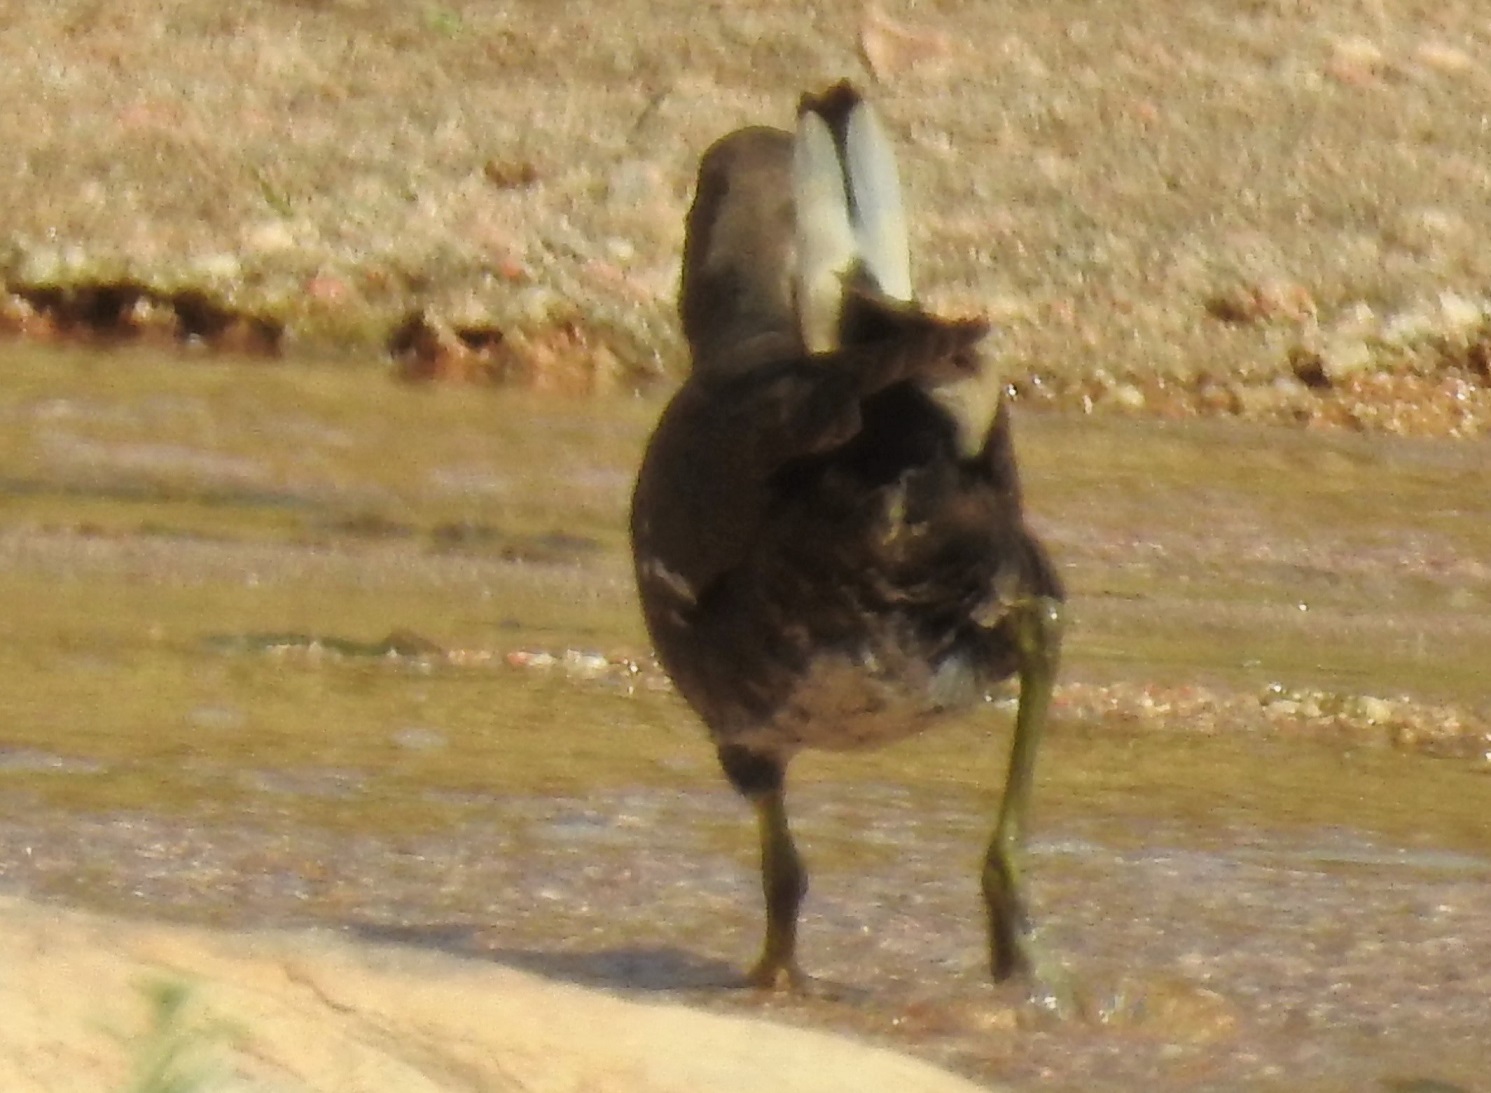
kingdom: Animalia
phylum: Chordata
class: Aves
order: Gruiformes
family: Rallidae
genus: Gallinula
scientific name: Gallinula chloropus
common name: Common moorhen
